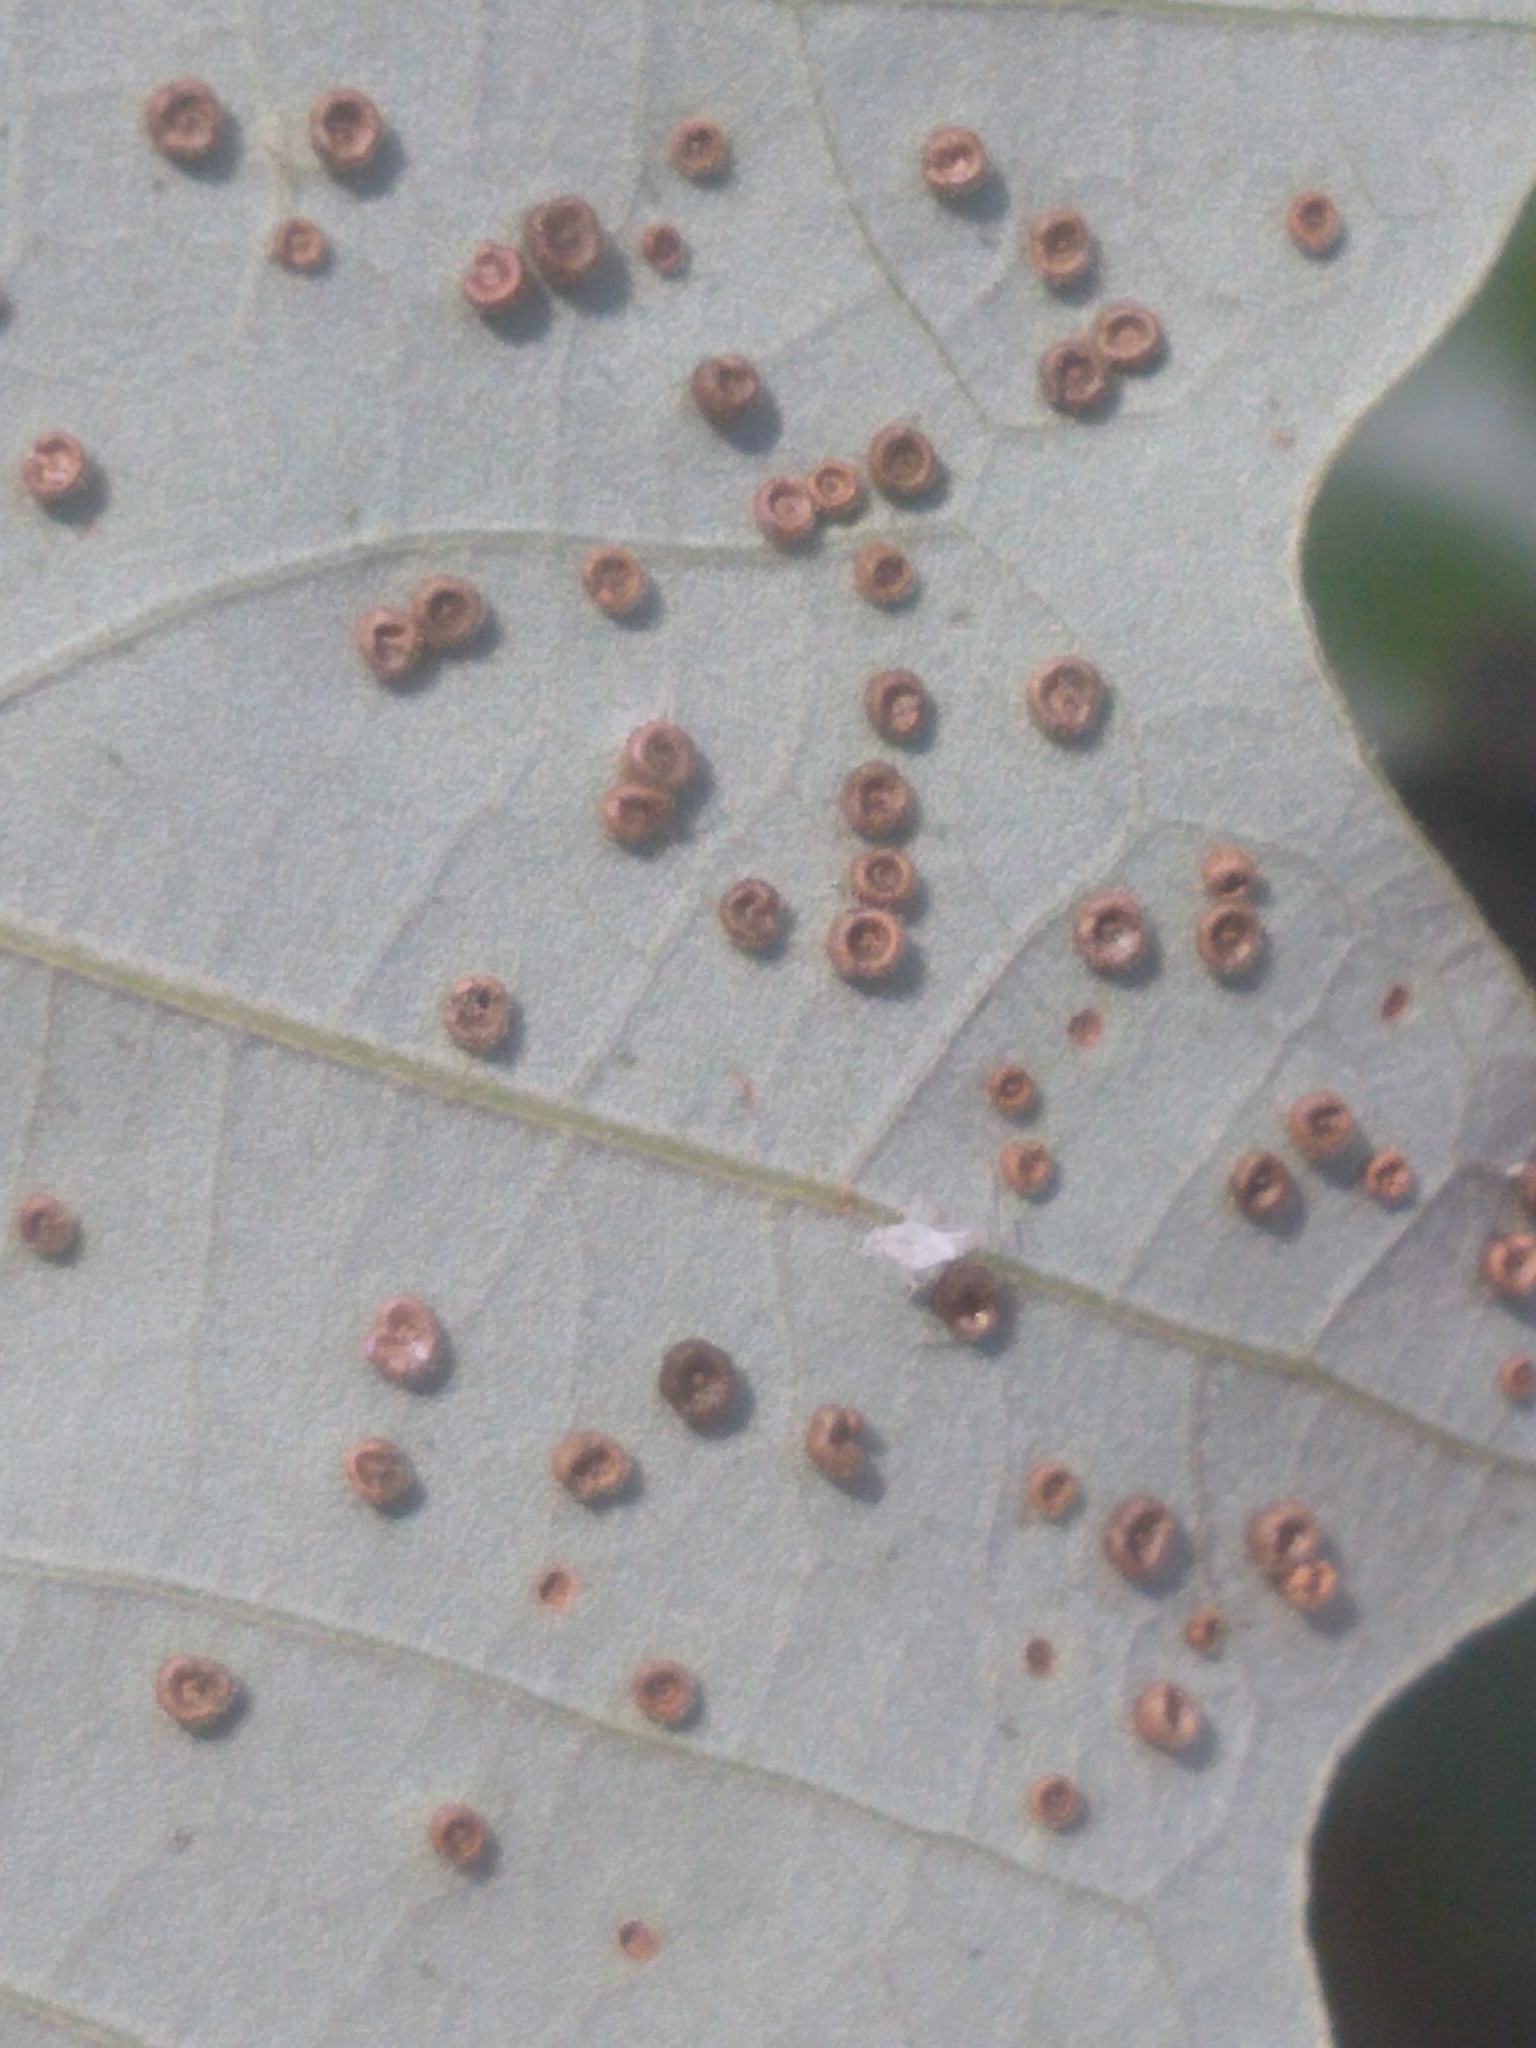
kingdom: Animalia
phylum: Arthropoda
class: Insecta
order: Hymenoptera
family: Cynipidae
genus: Neuroterus
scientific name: Neuroterus
